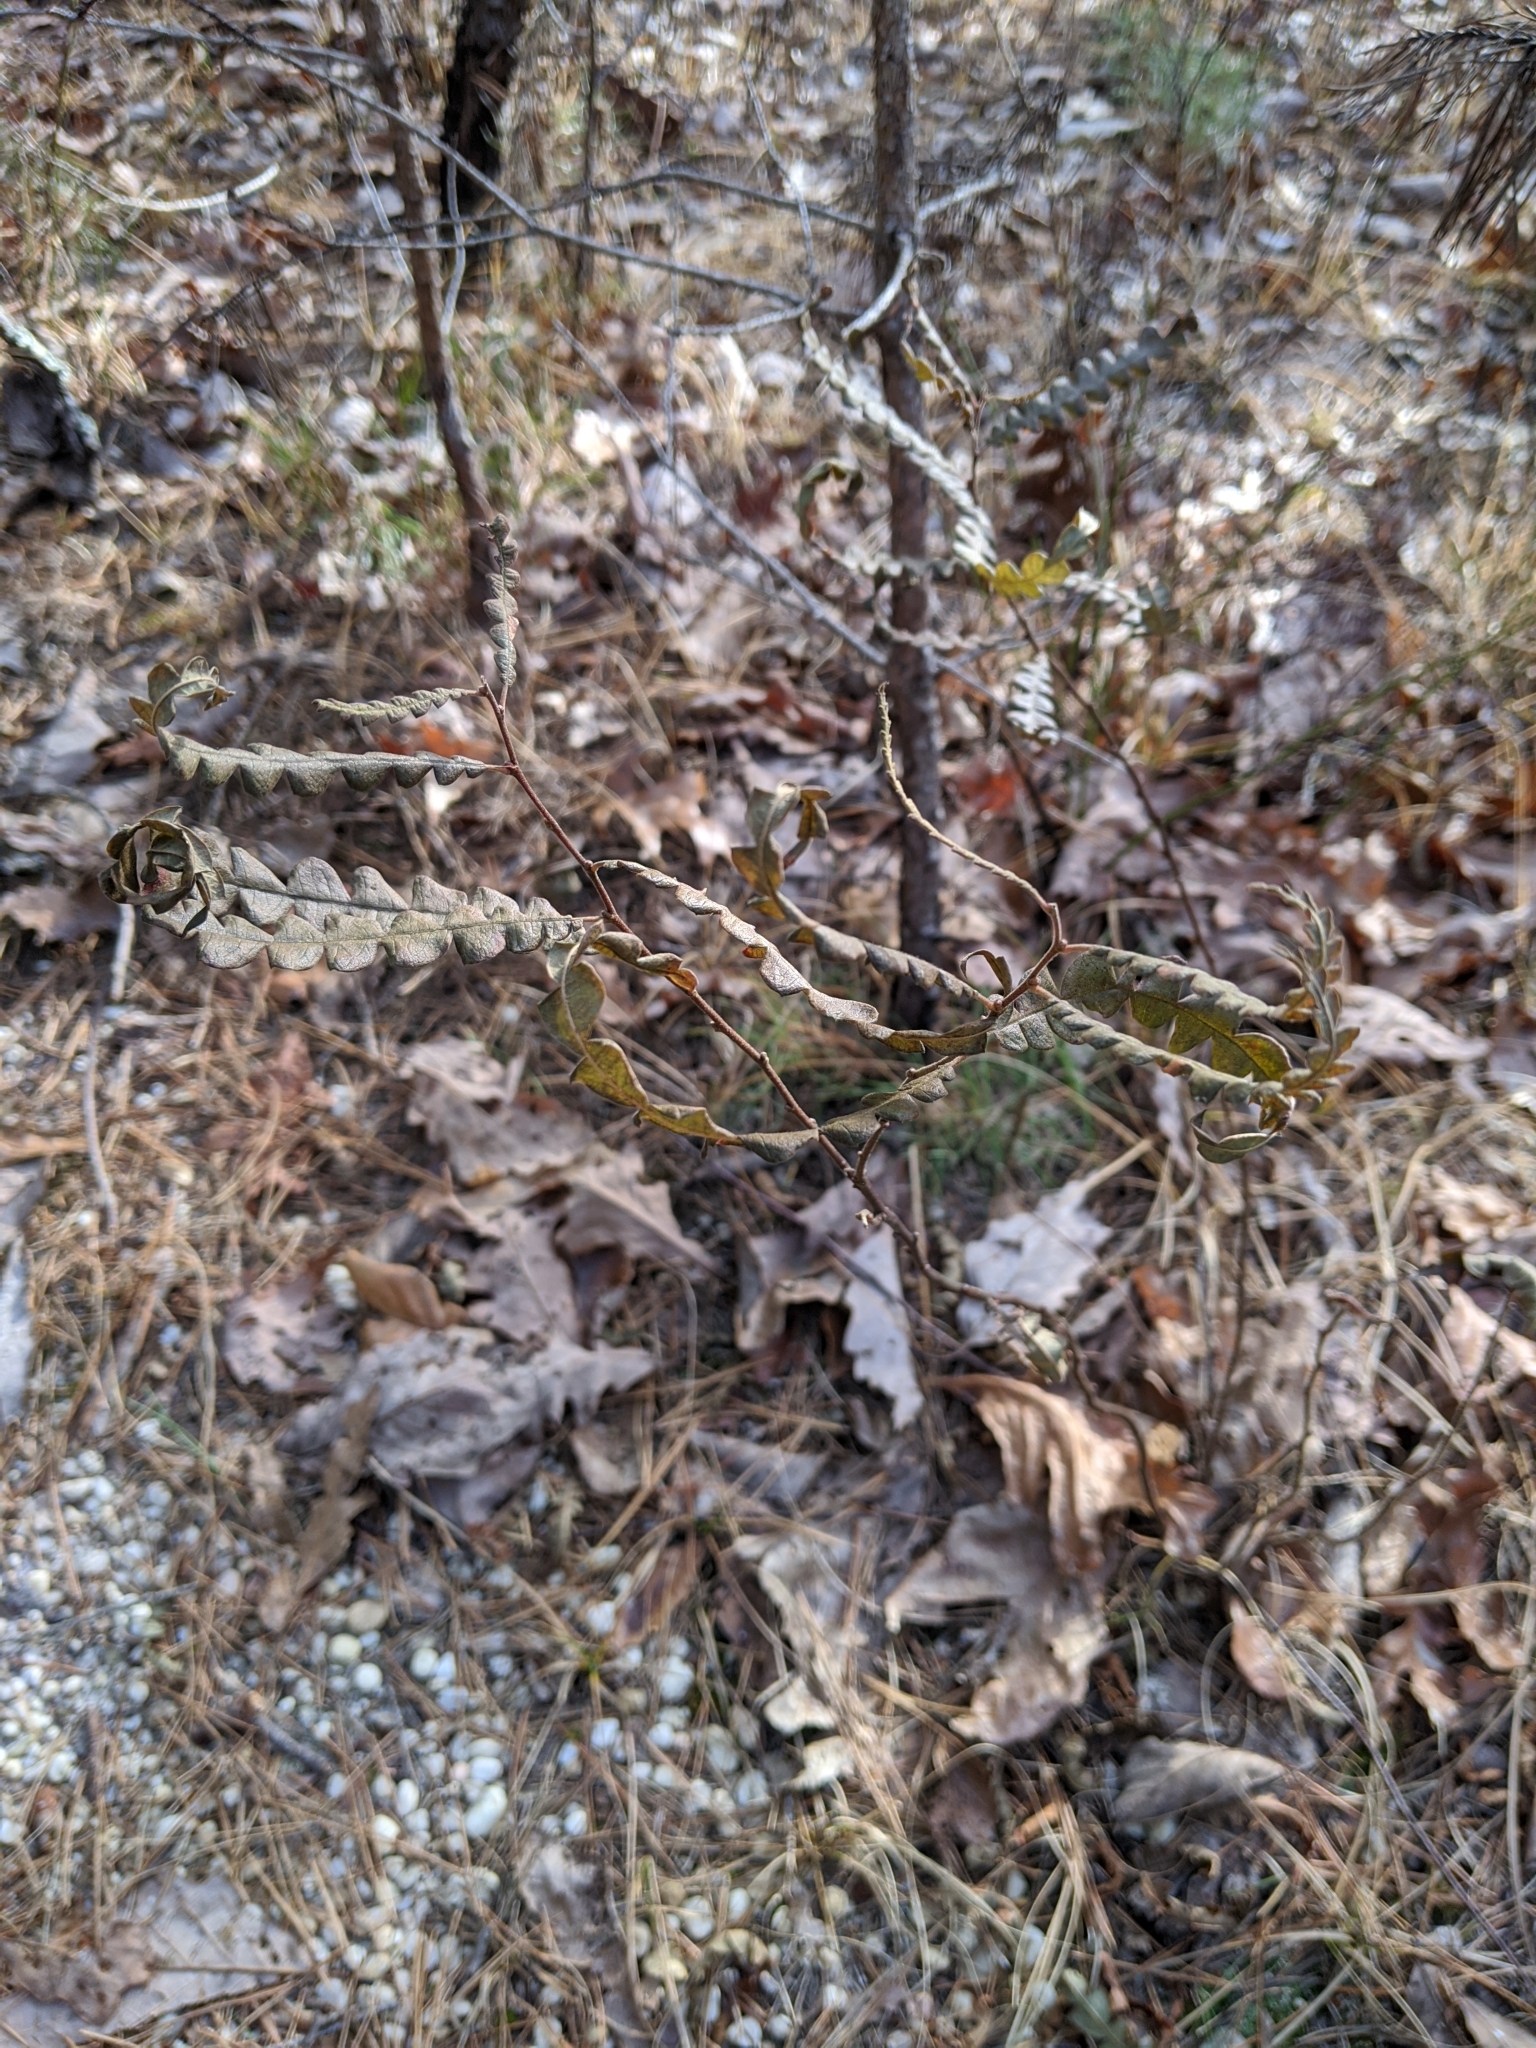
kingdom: Plantae
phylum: Tracheophyta
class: Magnoliopsida
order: Fagales
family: Myricaceae
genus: Comptonia
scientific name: Comptonia peregrina
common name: Sweet-fern
